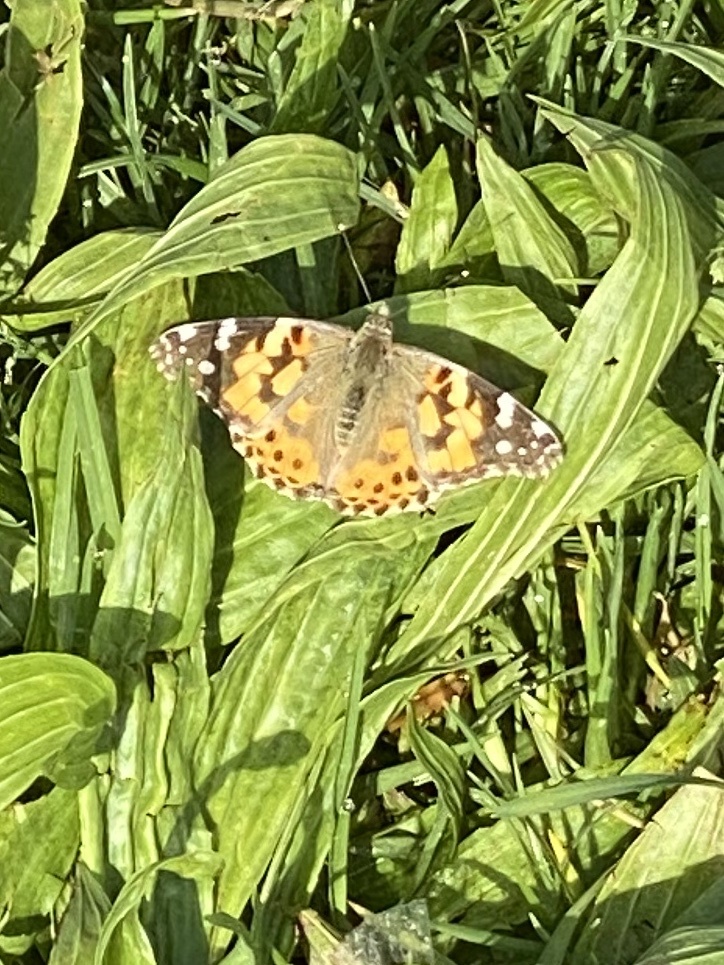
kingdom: Animalia
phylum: Arthropoda
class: Insecta
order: Lepidoptera
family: Nymphalidae
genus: Vanessa
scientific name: Vanessa cardui
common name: Painted lady
